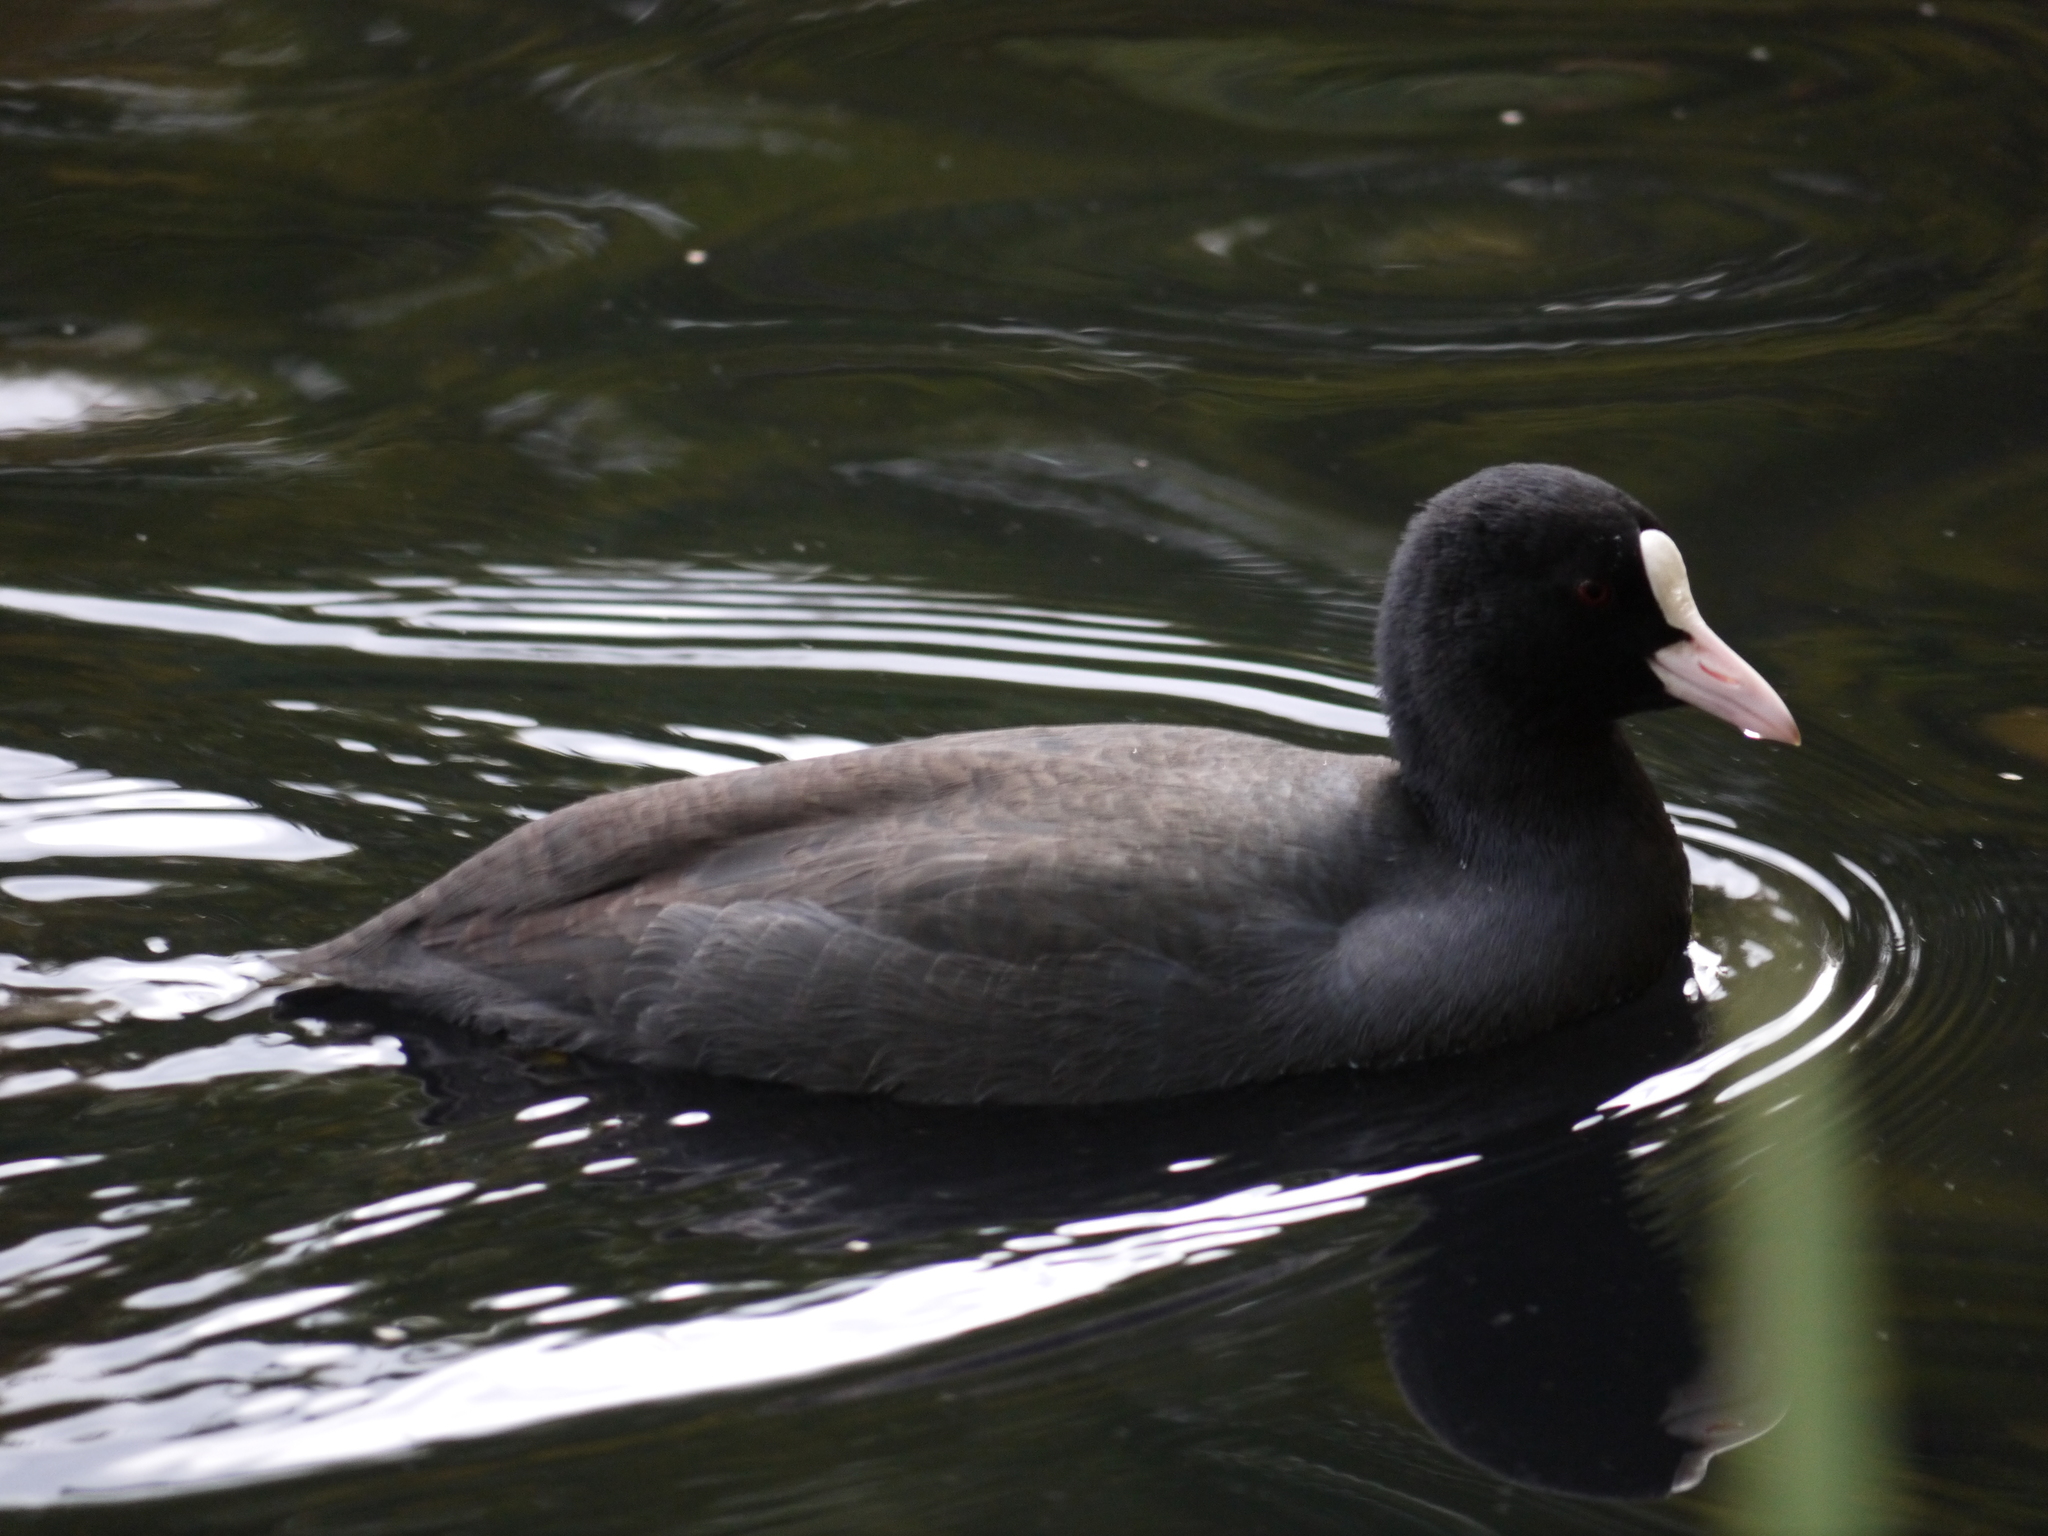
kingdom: Animalia
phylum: Chordata
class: Aves
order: Gruiformes
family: Rallidae
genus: Fulica
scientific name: Fulica atra
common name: Eurasian coot
